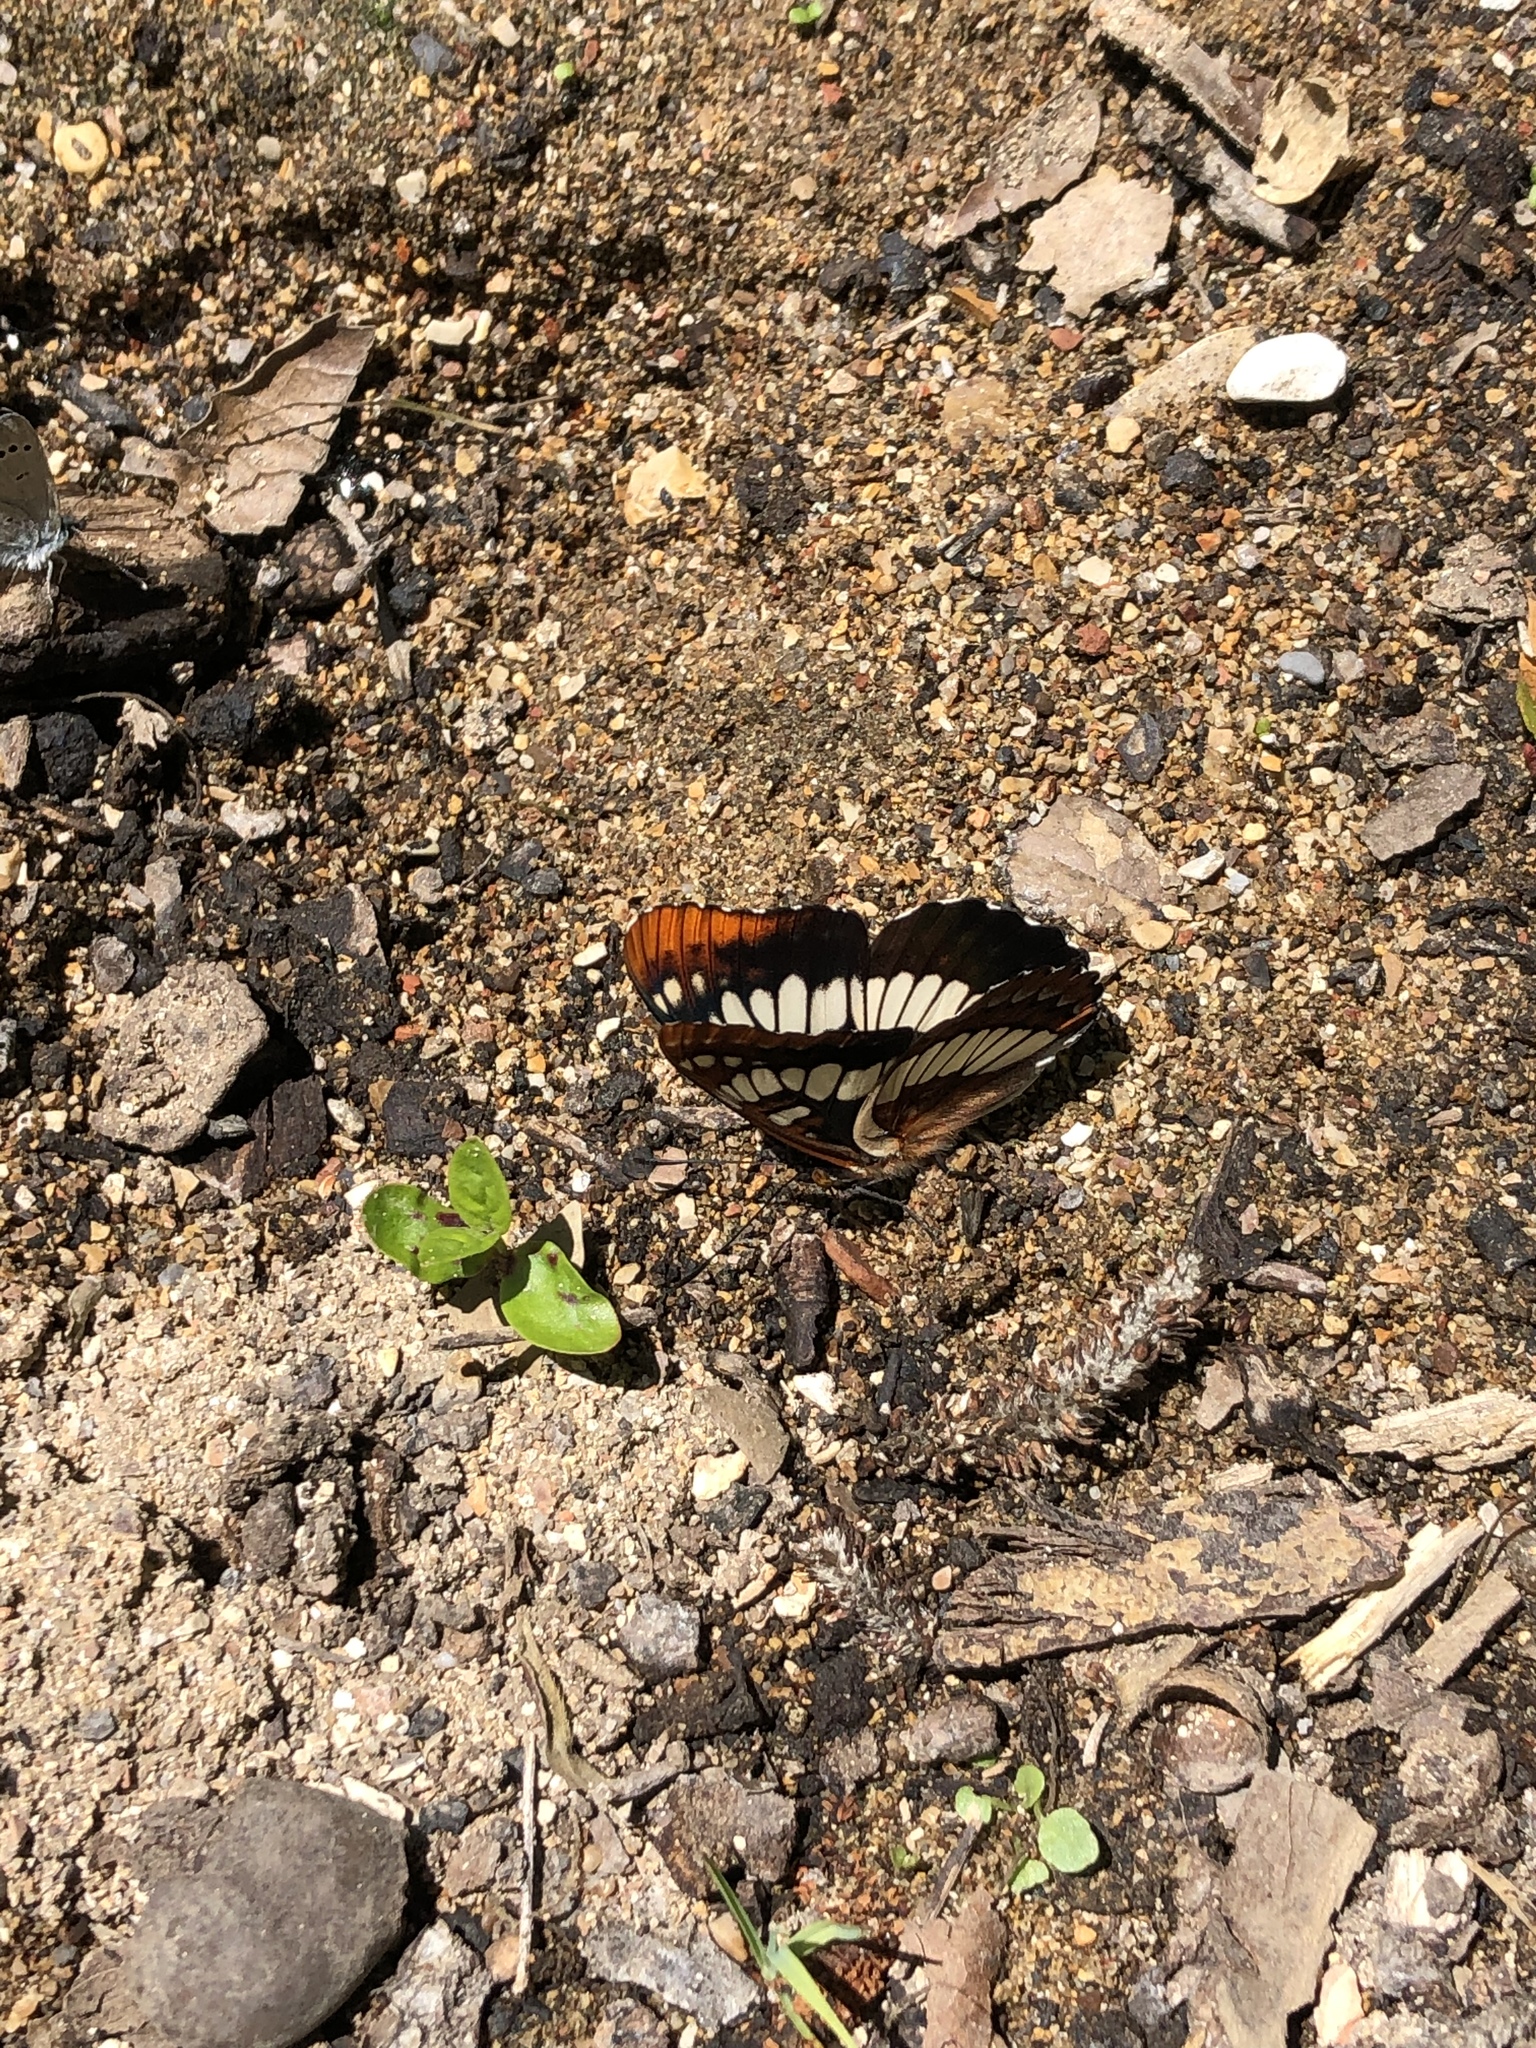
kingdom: Animalia
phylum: Arthropoda
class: Insecta
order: Lepidoptera
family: Nymphalidae
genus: Limenitis
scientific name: Limenitis lorquini
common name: Lorquin's admiral
